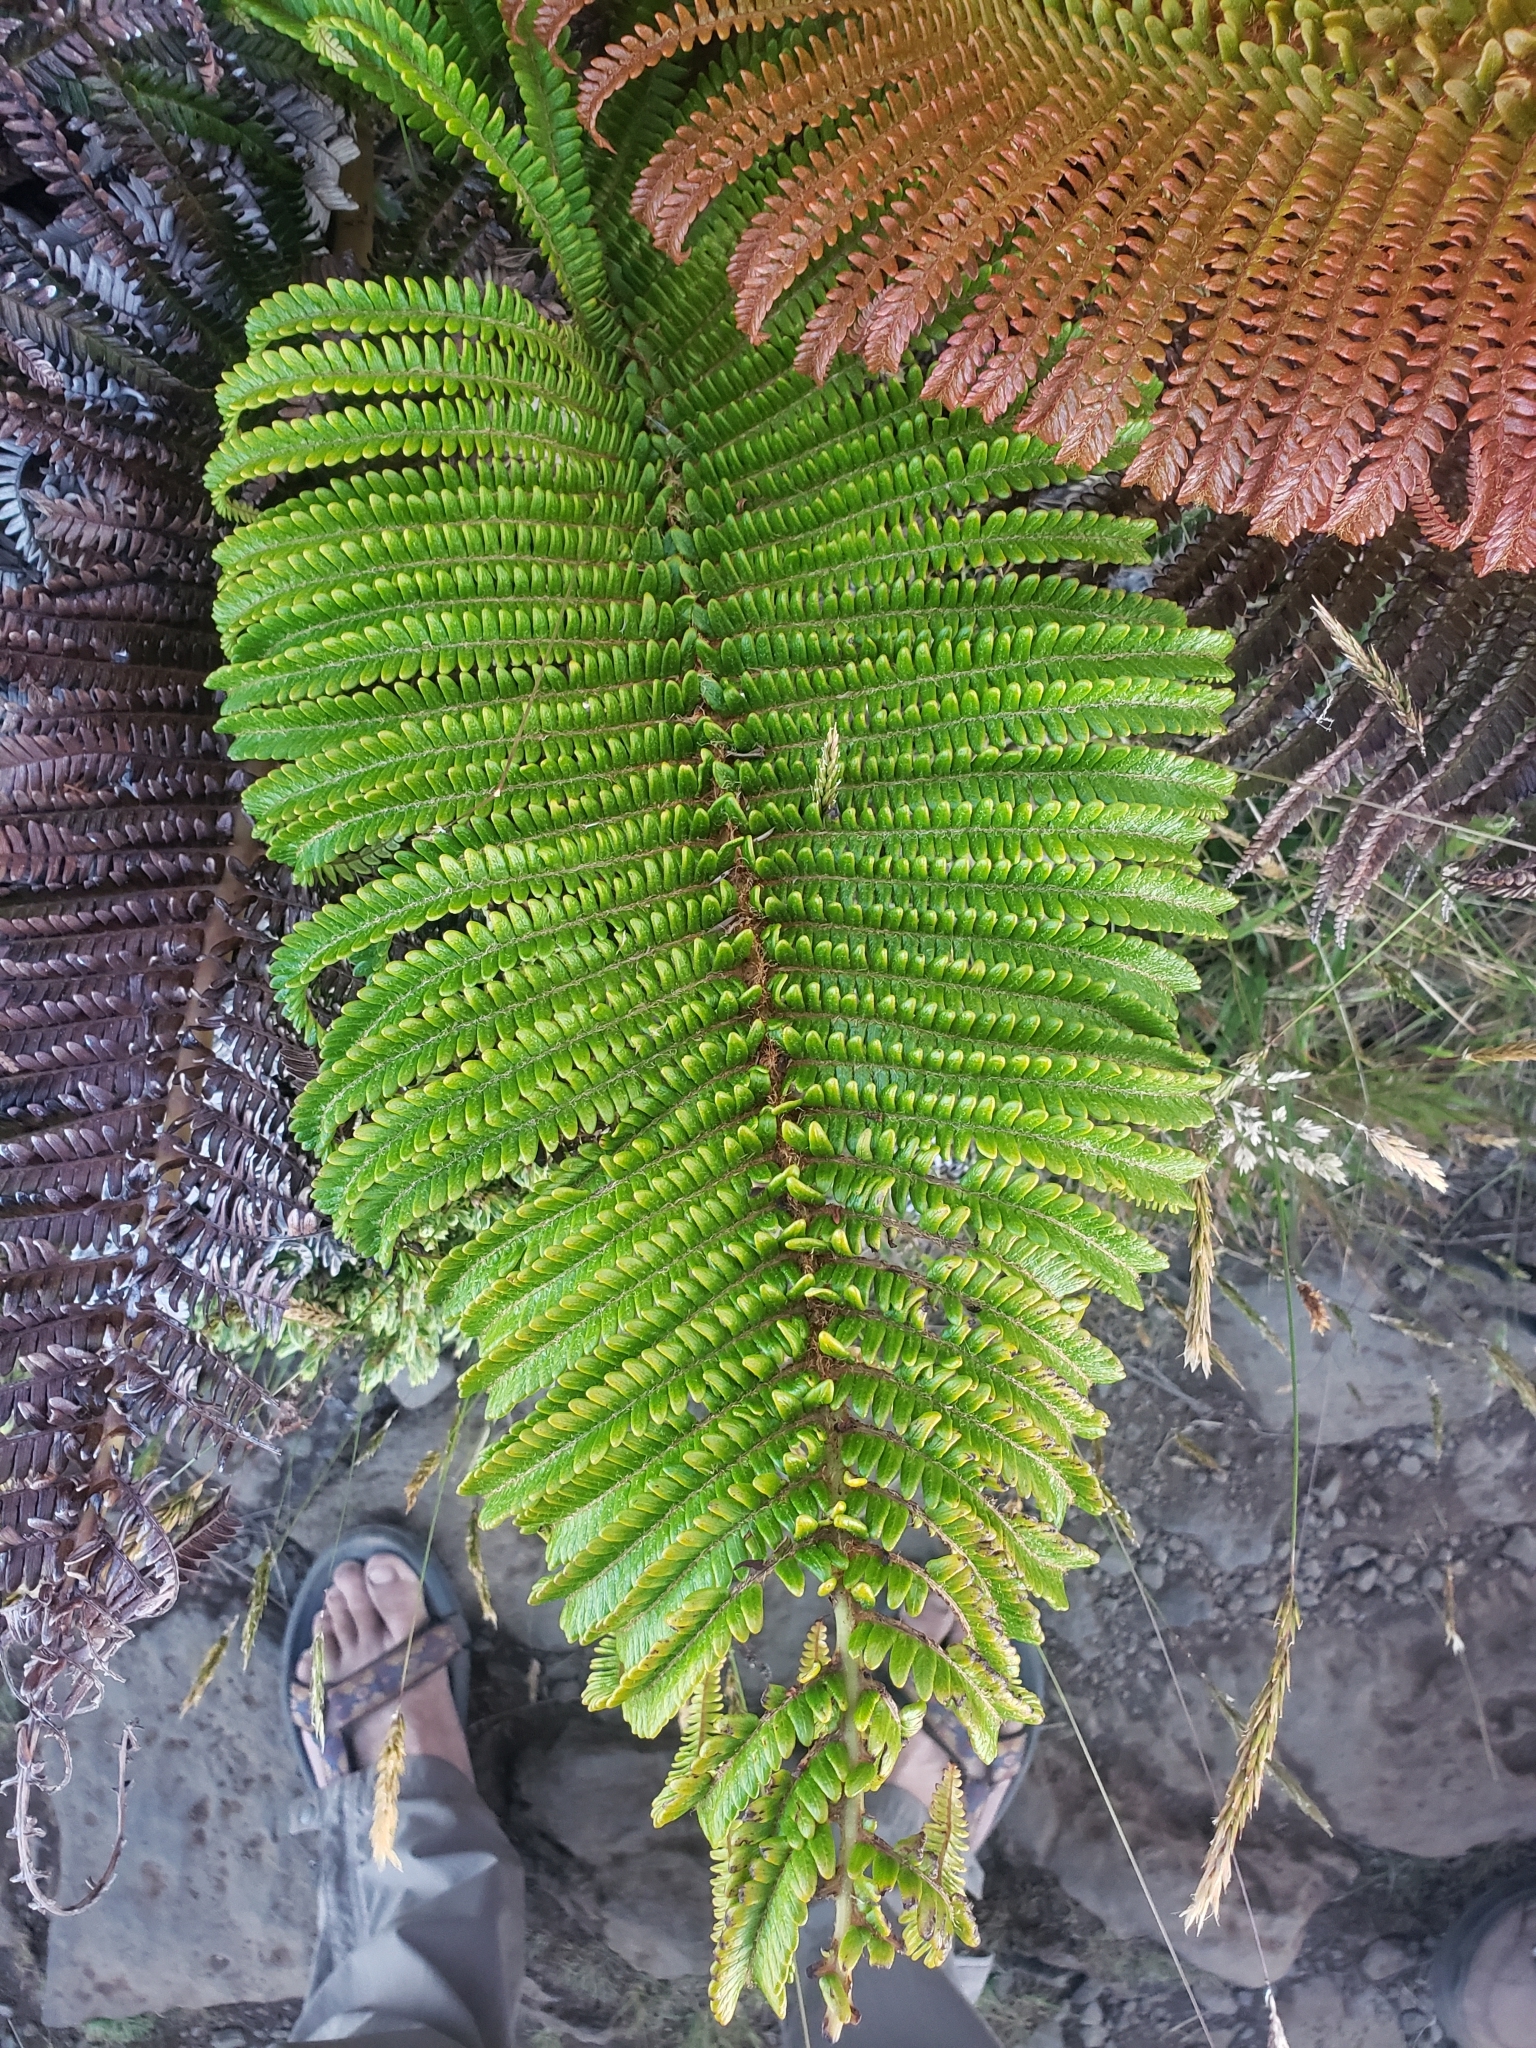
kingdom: Plantae
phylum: Tracheophyta
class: Polypodiopsida
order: Polypodiales
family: Blechnaceae
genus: Sadleria
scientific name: Sadleria cyatheoides
